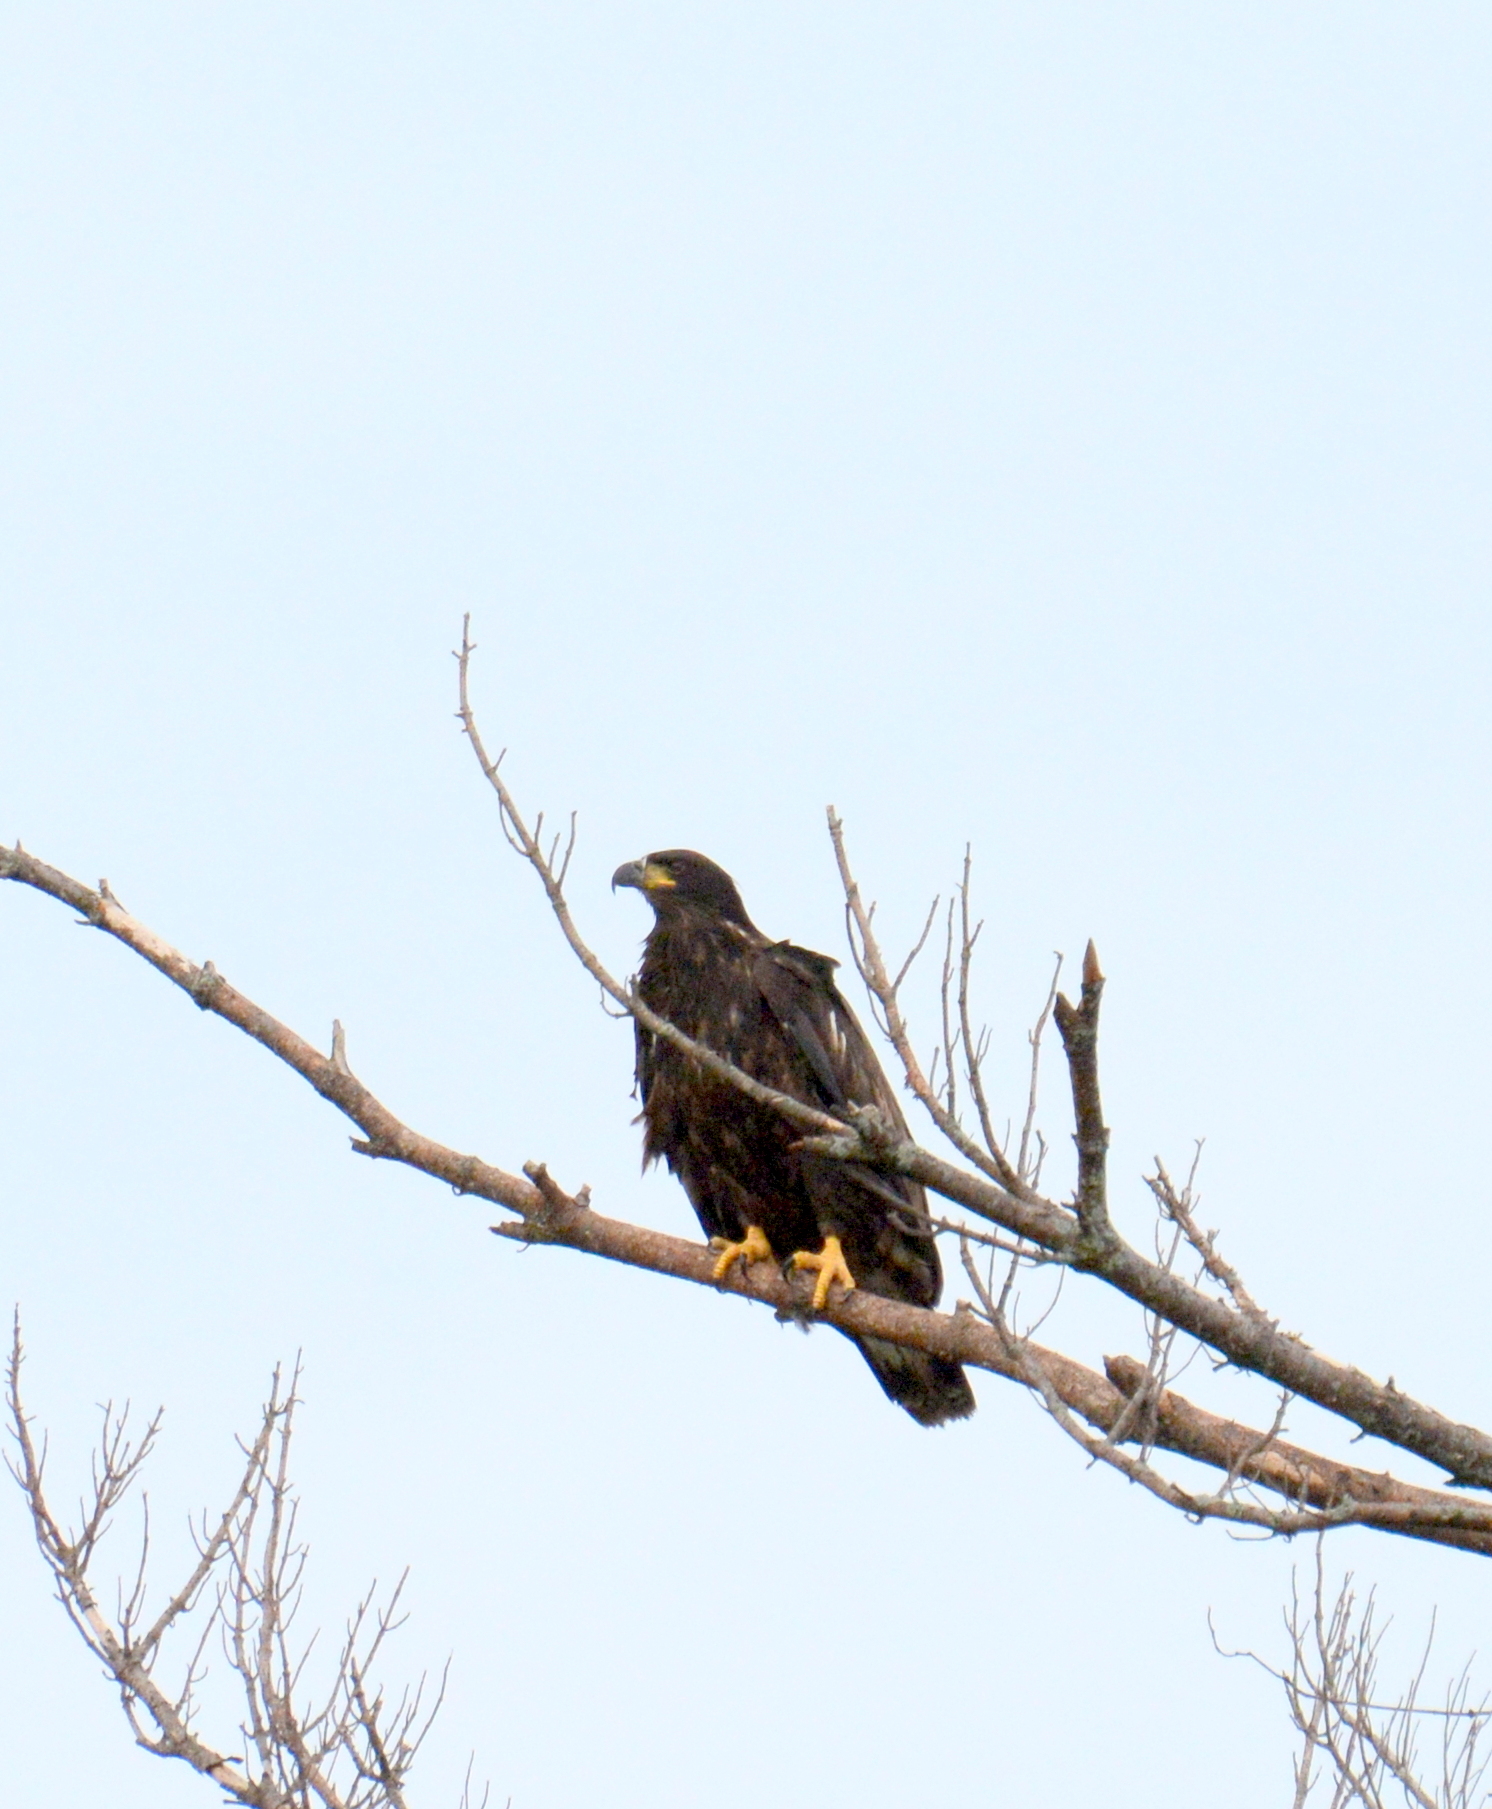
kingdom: Animalia
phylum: Chordata
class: Aves
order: Accipitriformes
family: Accipitridae
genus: Haliaeetus
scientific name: Haliaeetus leucocephalus
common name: Bald eagle
